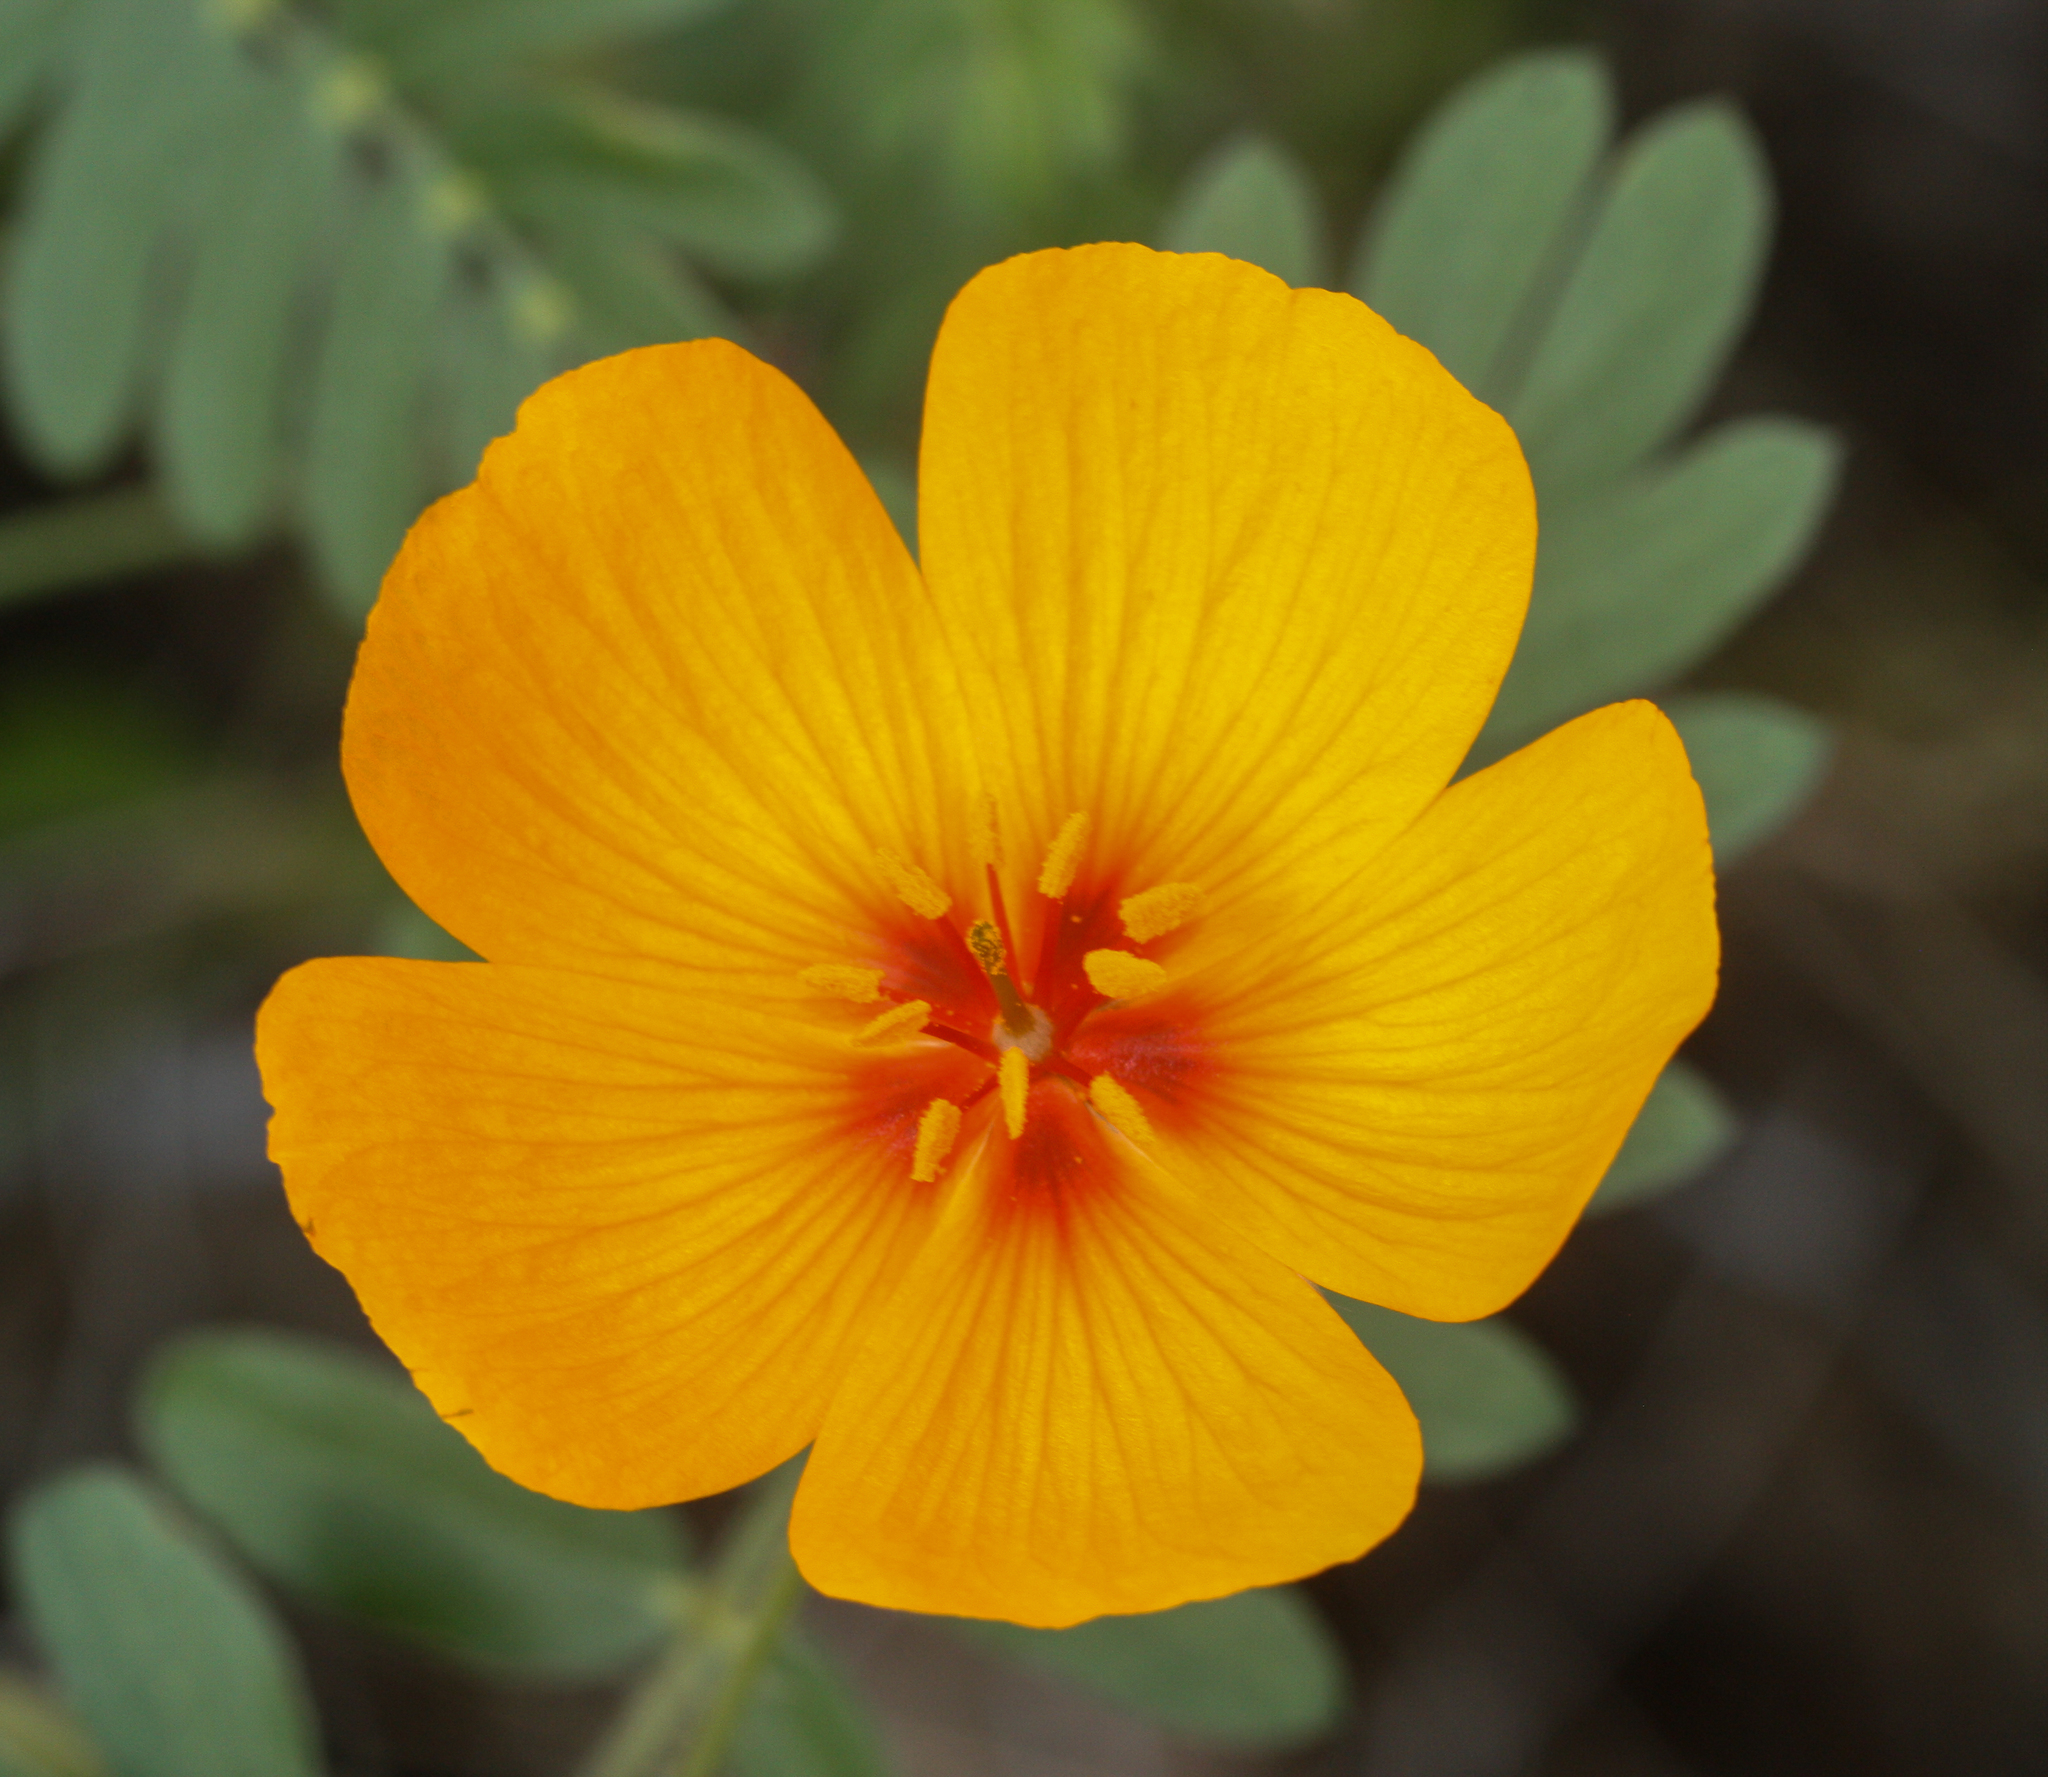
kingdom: Plantae
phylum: Tracheophyta
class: Magnoliopsida
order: Zygophyllales
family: Zygophyllaceae
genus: Kallstroemia
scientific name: Kallstroemia grandiflora
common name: Arizona-poppy
